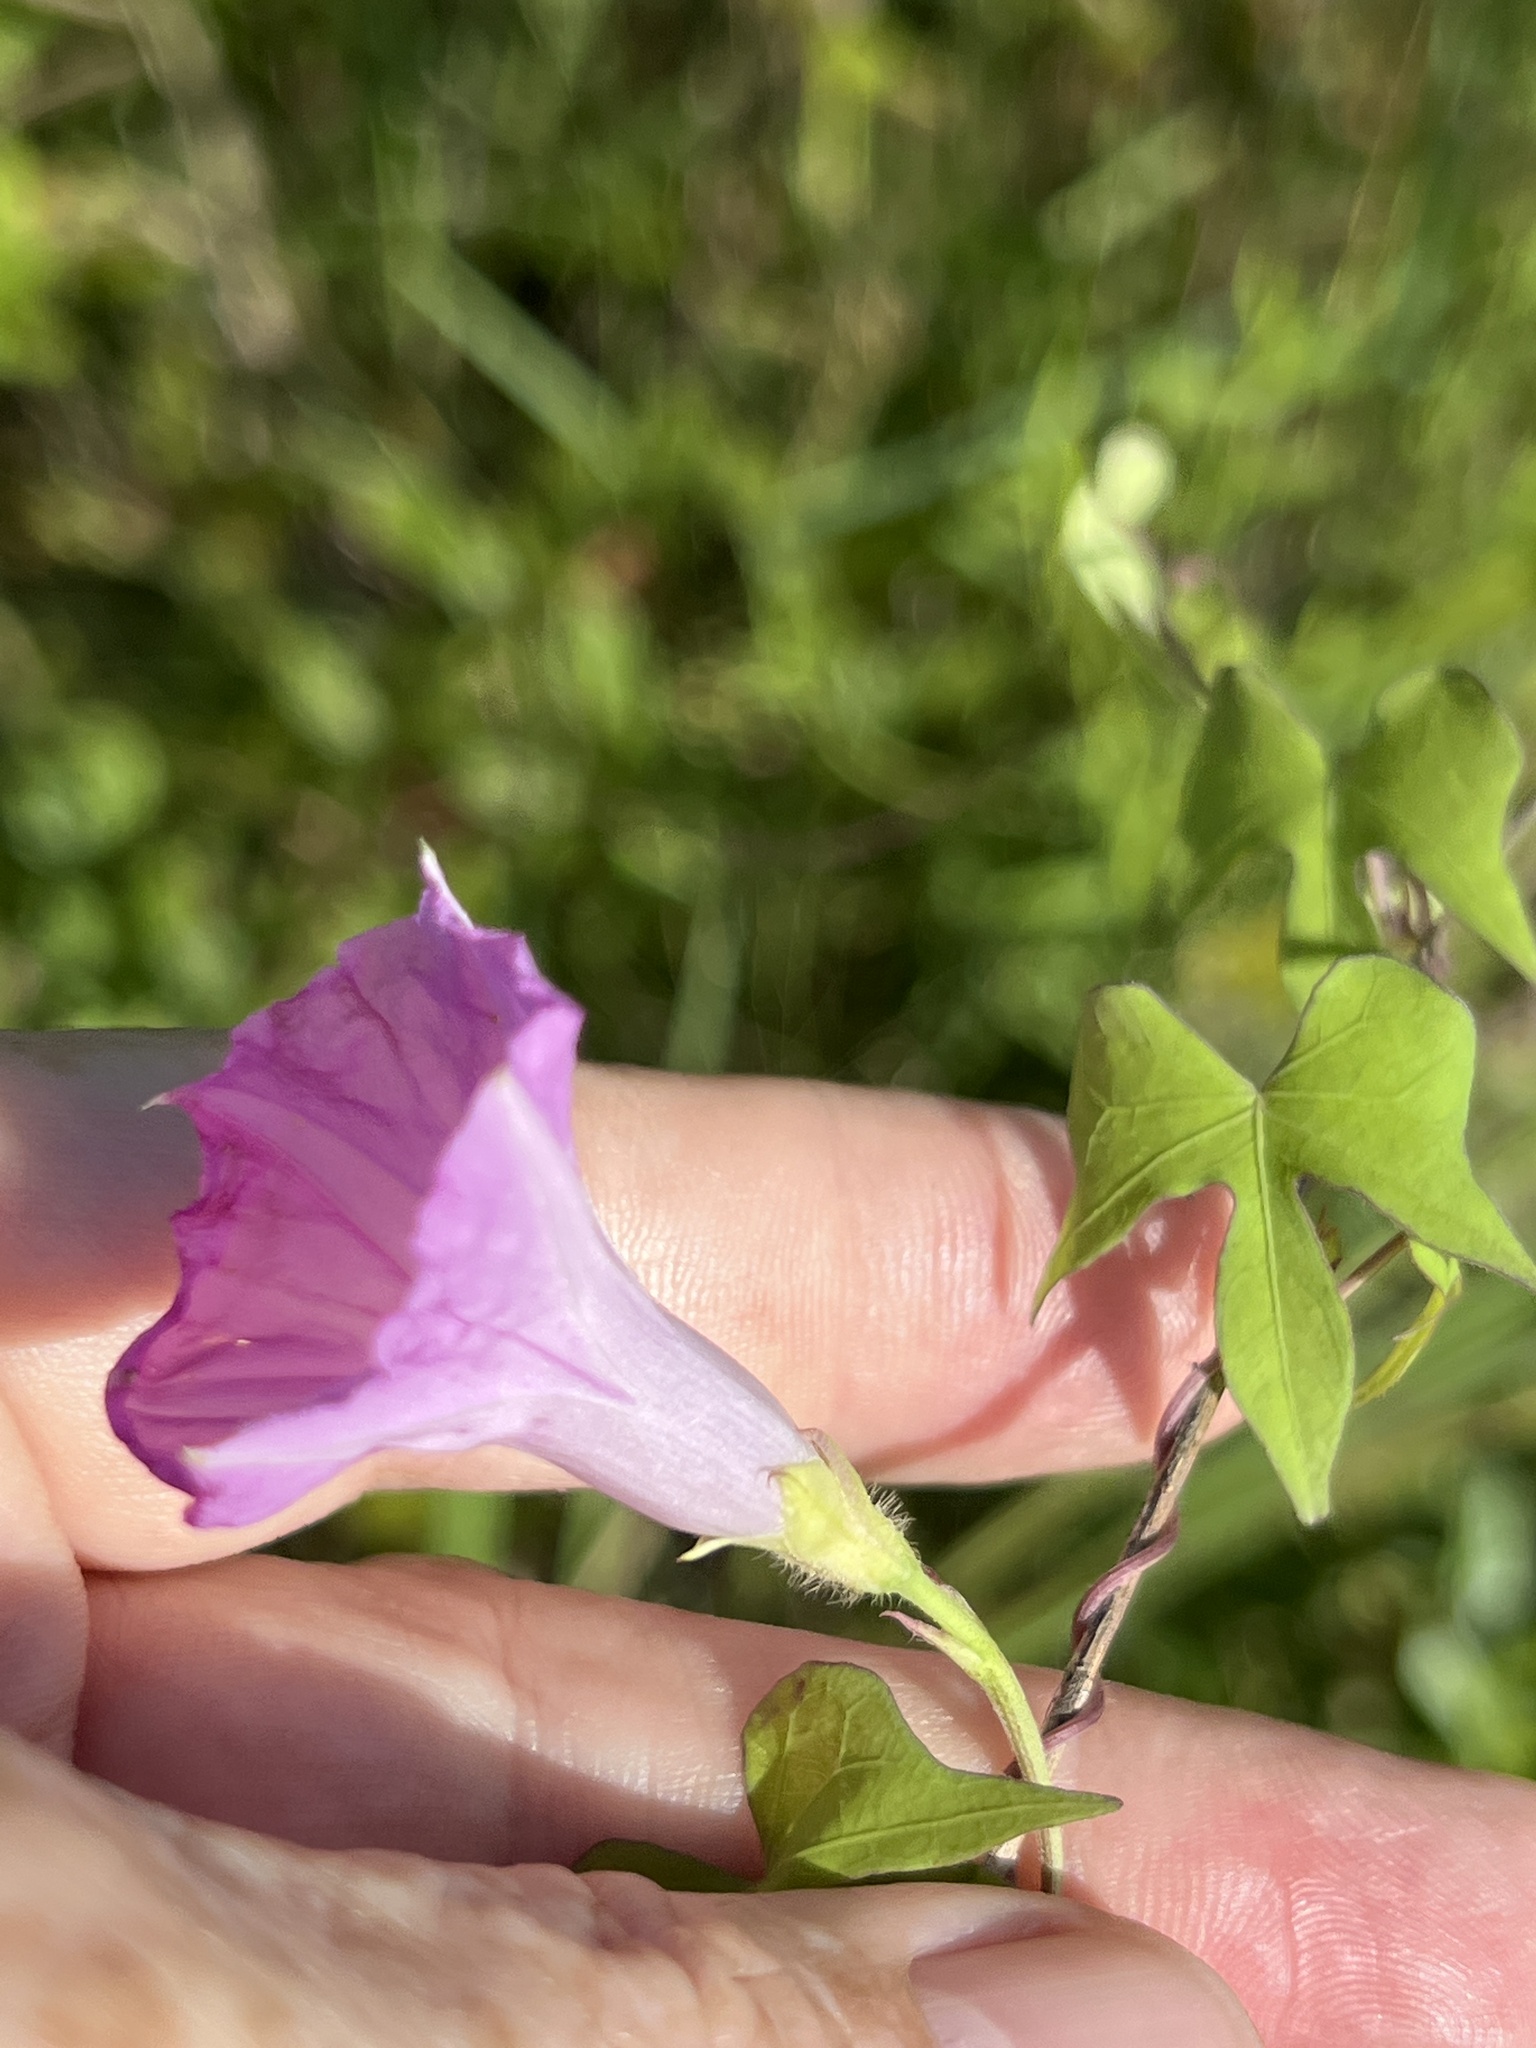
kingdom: Plantae
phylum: Tracheophyta
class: Magnoliopsida
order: Solanales
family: Convolvulaceae
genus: Ipomoea
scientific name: Ipomoea cordatotriloba
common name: Cotton morning glory
